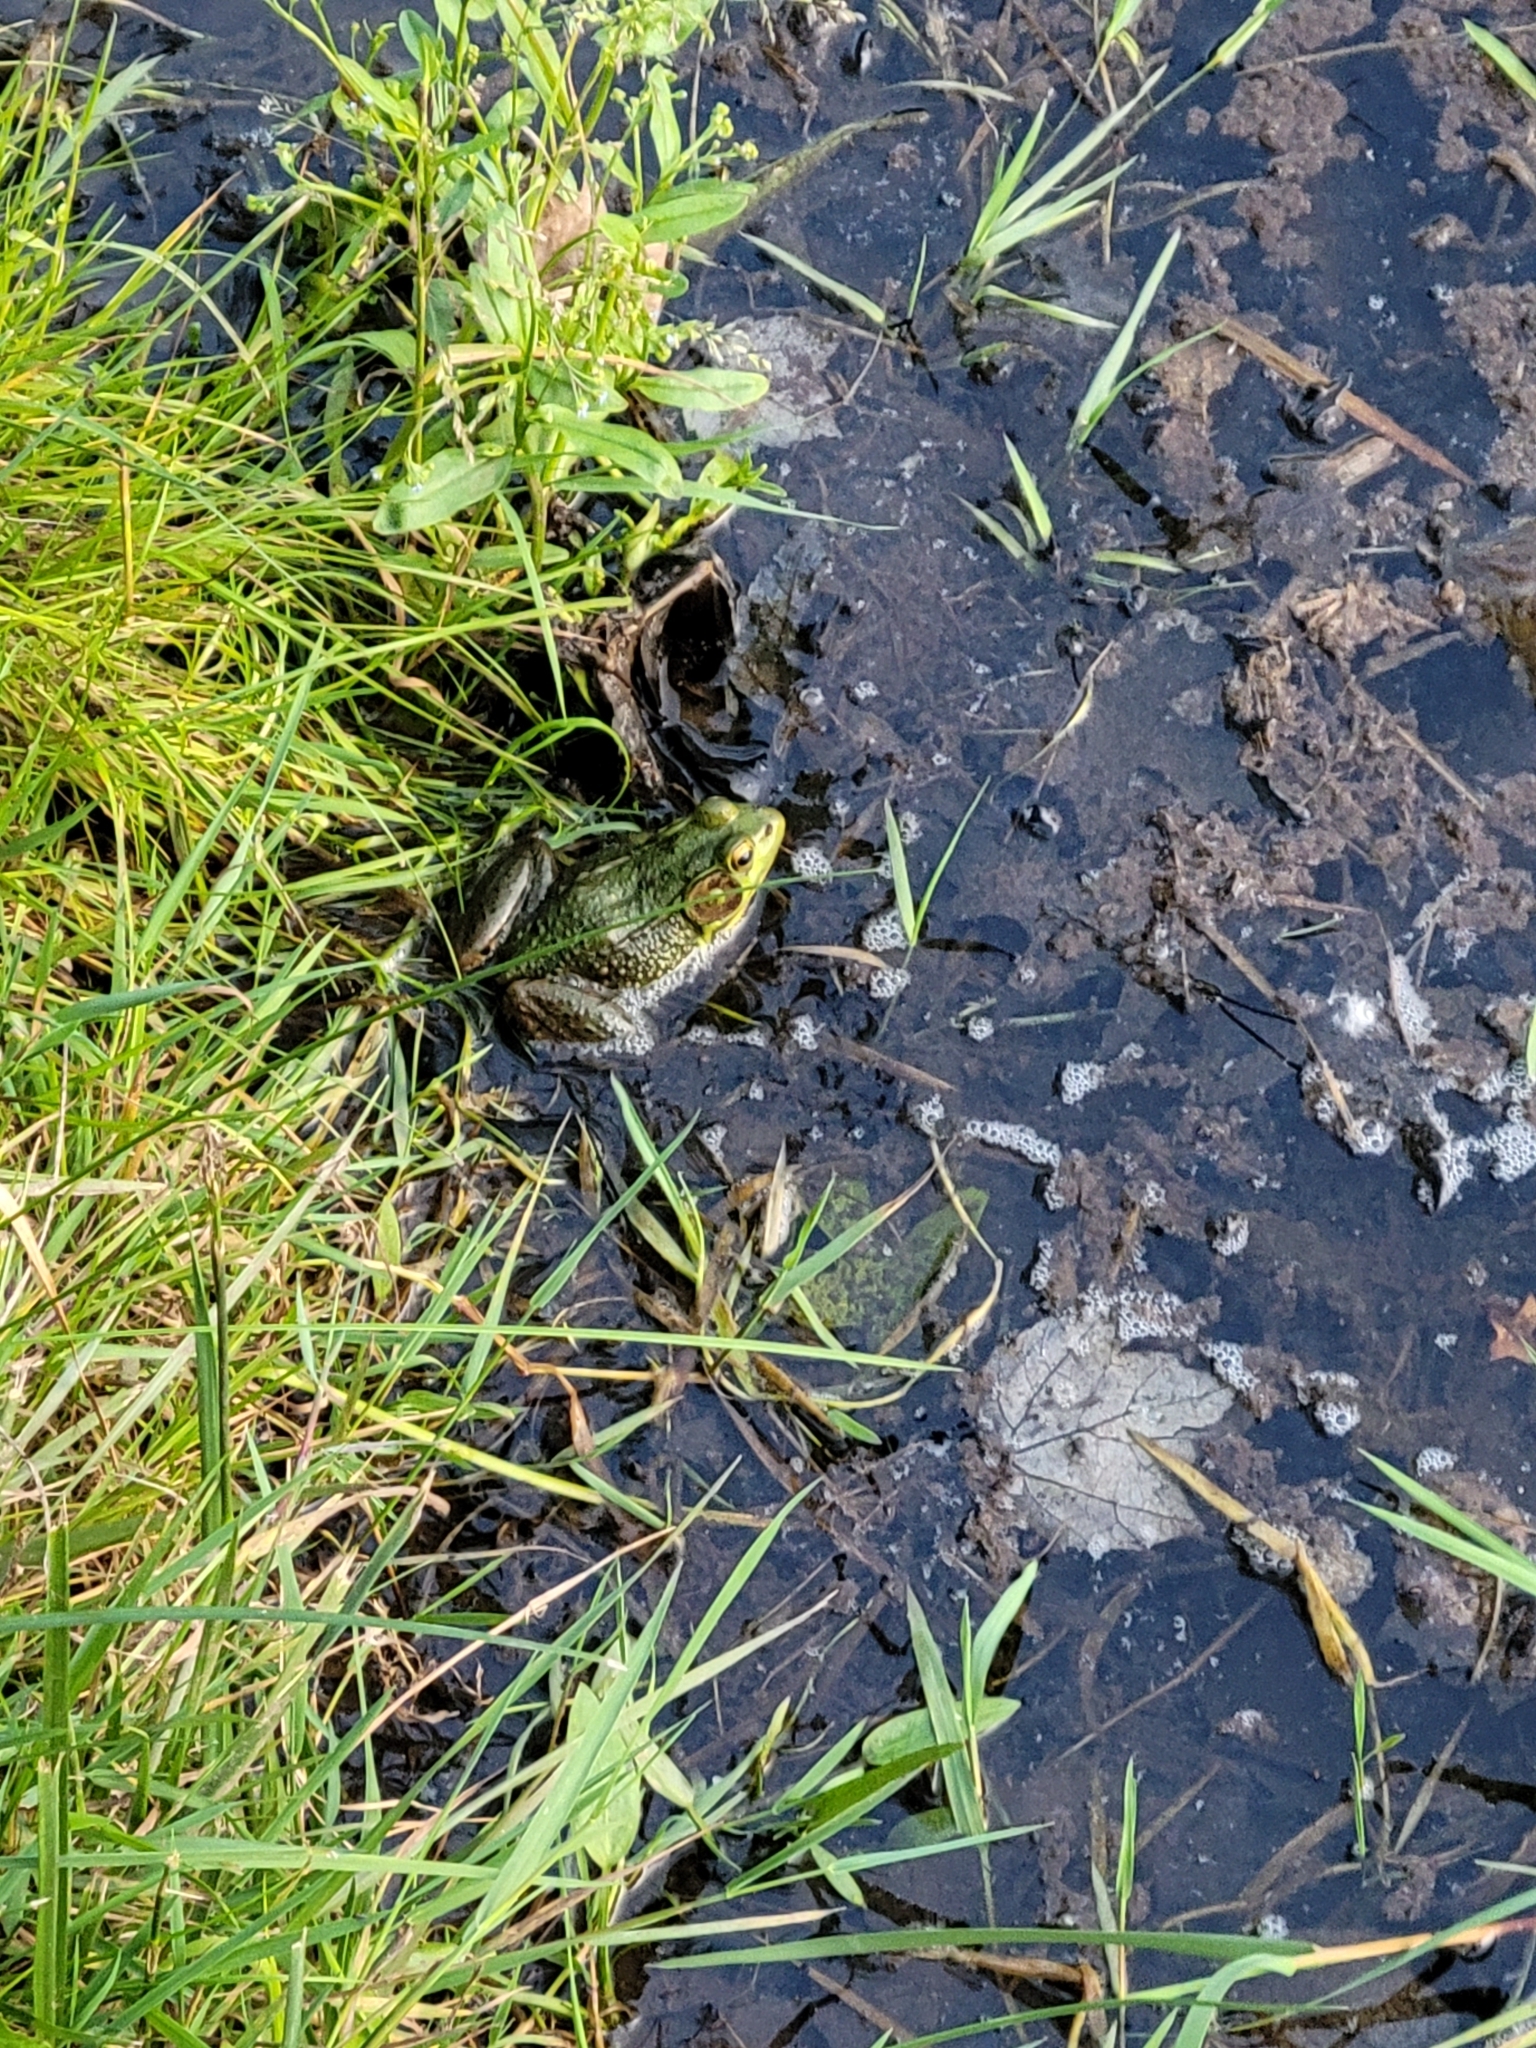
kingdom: Animalia
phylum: Chordata
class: Amphibia
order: Anura
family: Ranidae
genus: Lithobates
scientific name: Lithobates clamitans
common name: Green frog
